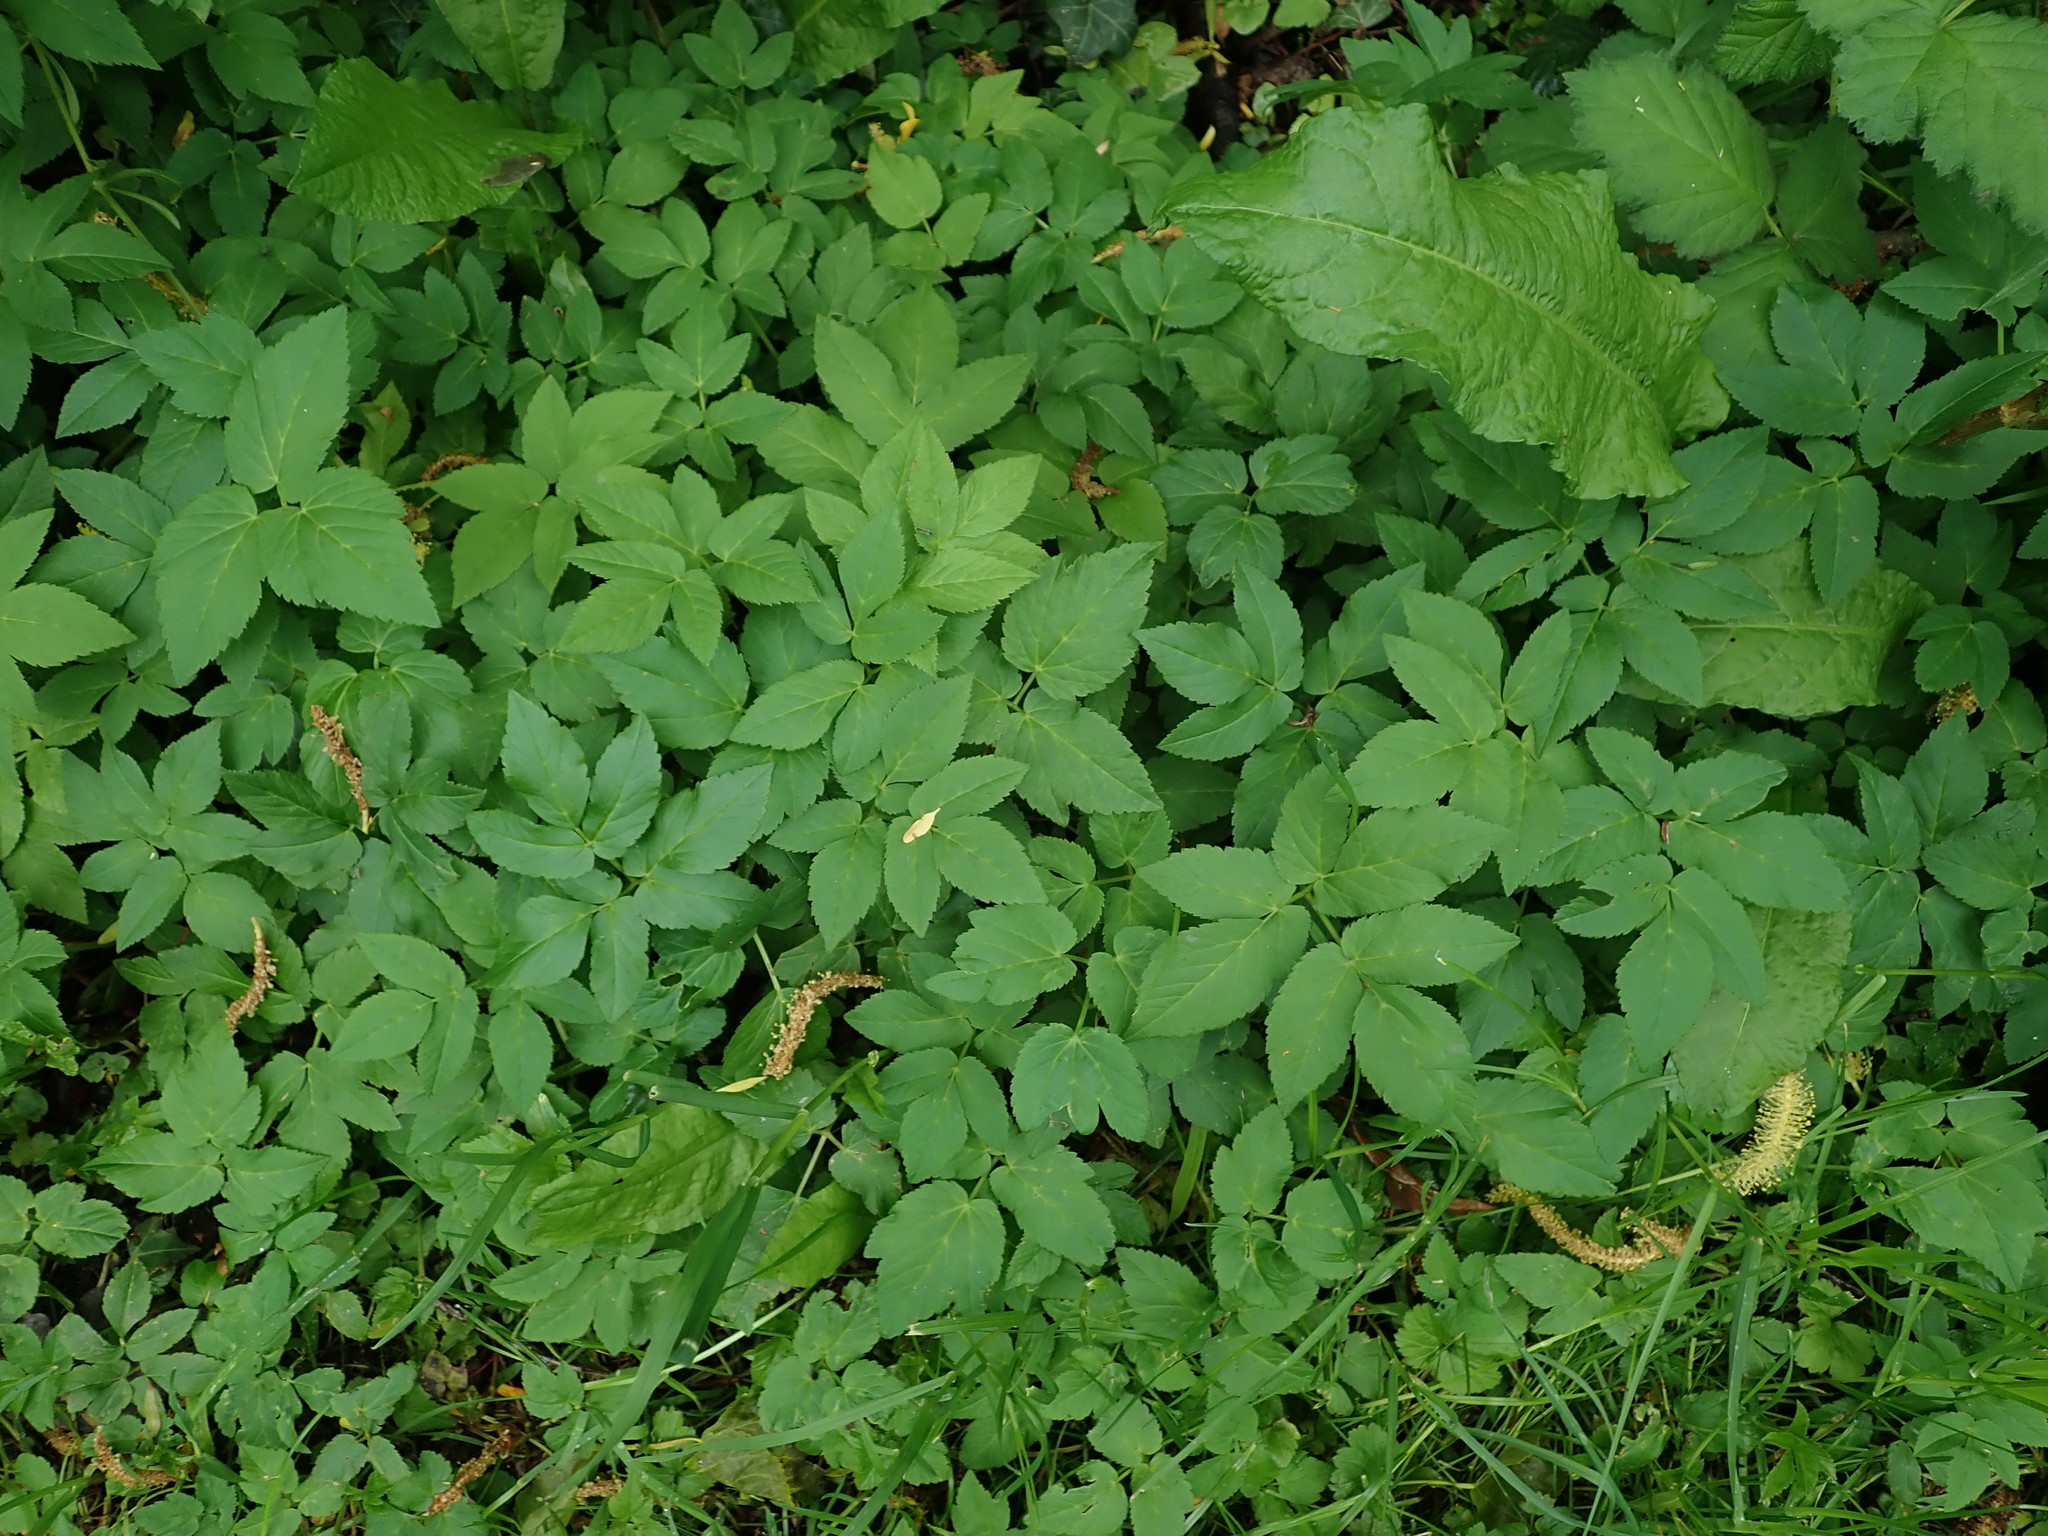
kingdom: Plantae
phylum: Tracheophyta
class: Magnoliopsida
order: Apiales
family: Apiaceae
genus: Aegopodium
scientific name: Aegopodium podagraria
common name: Ground-elder
